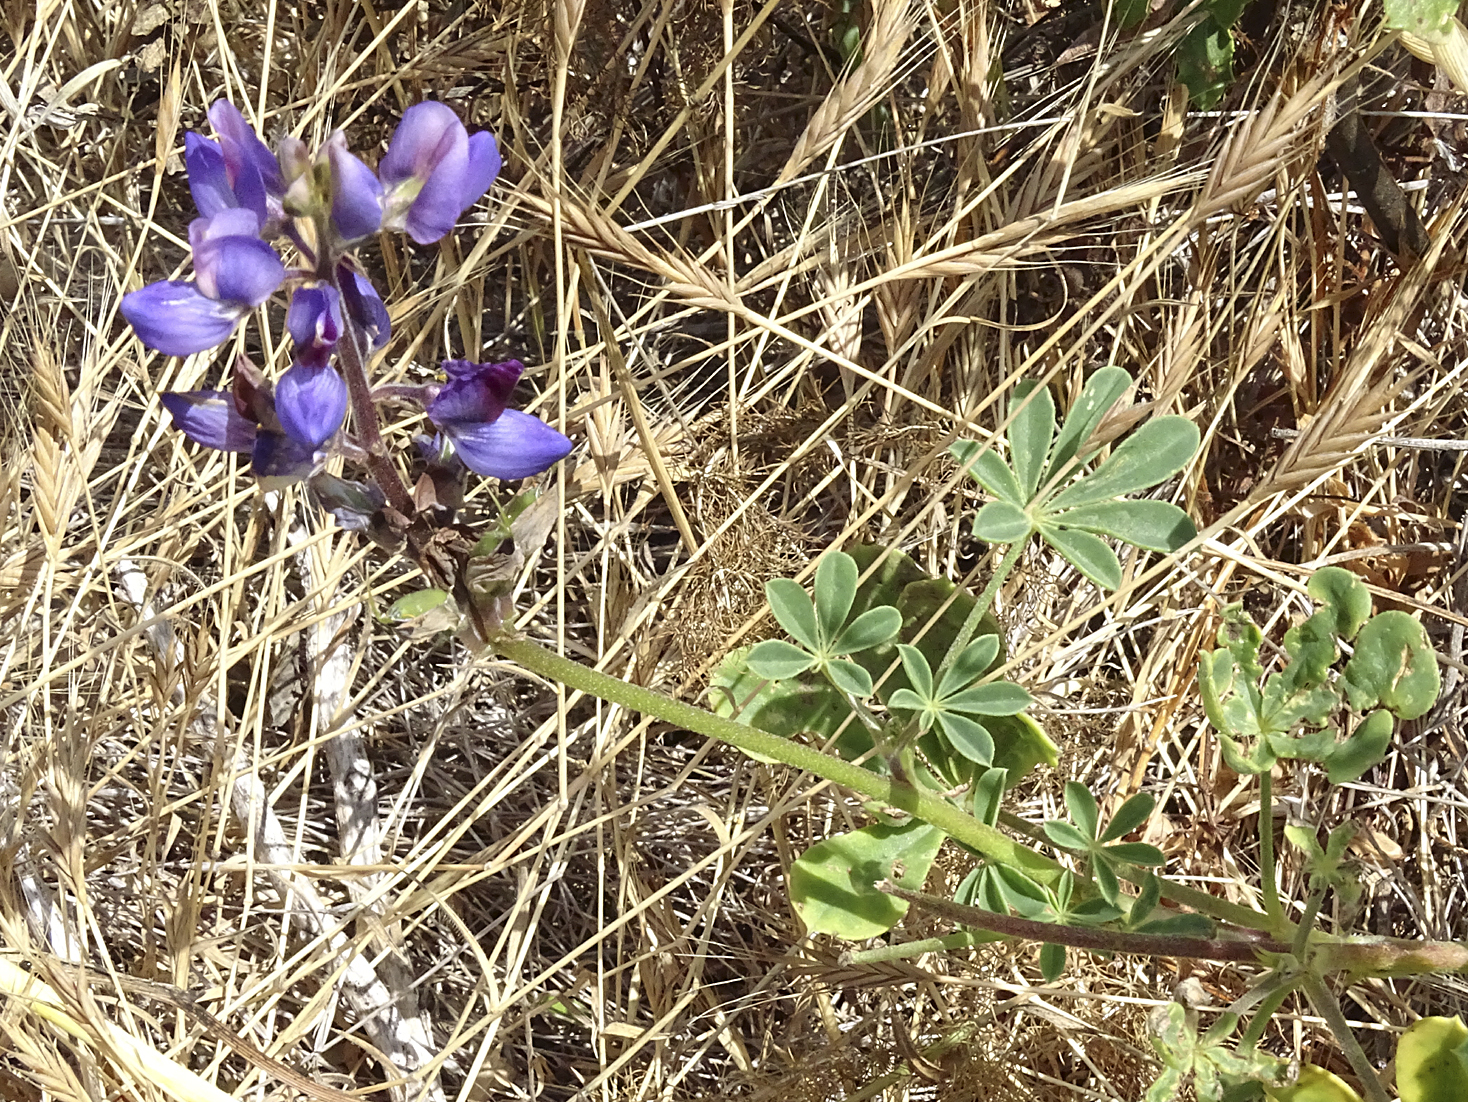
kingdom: Plantae
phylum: Tracheophyta
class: Magnoliopsida
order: Fabales
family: Fabaceae
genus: Lupinus
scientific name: Lupinus succulentus
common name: Arroyo lupine
